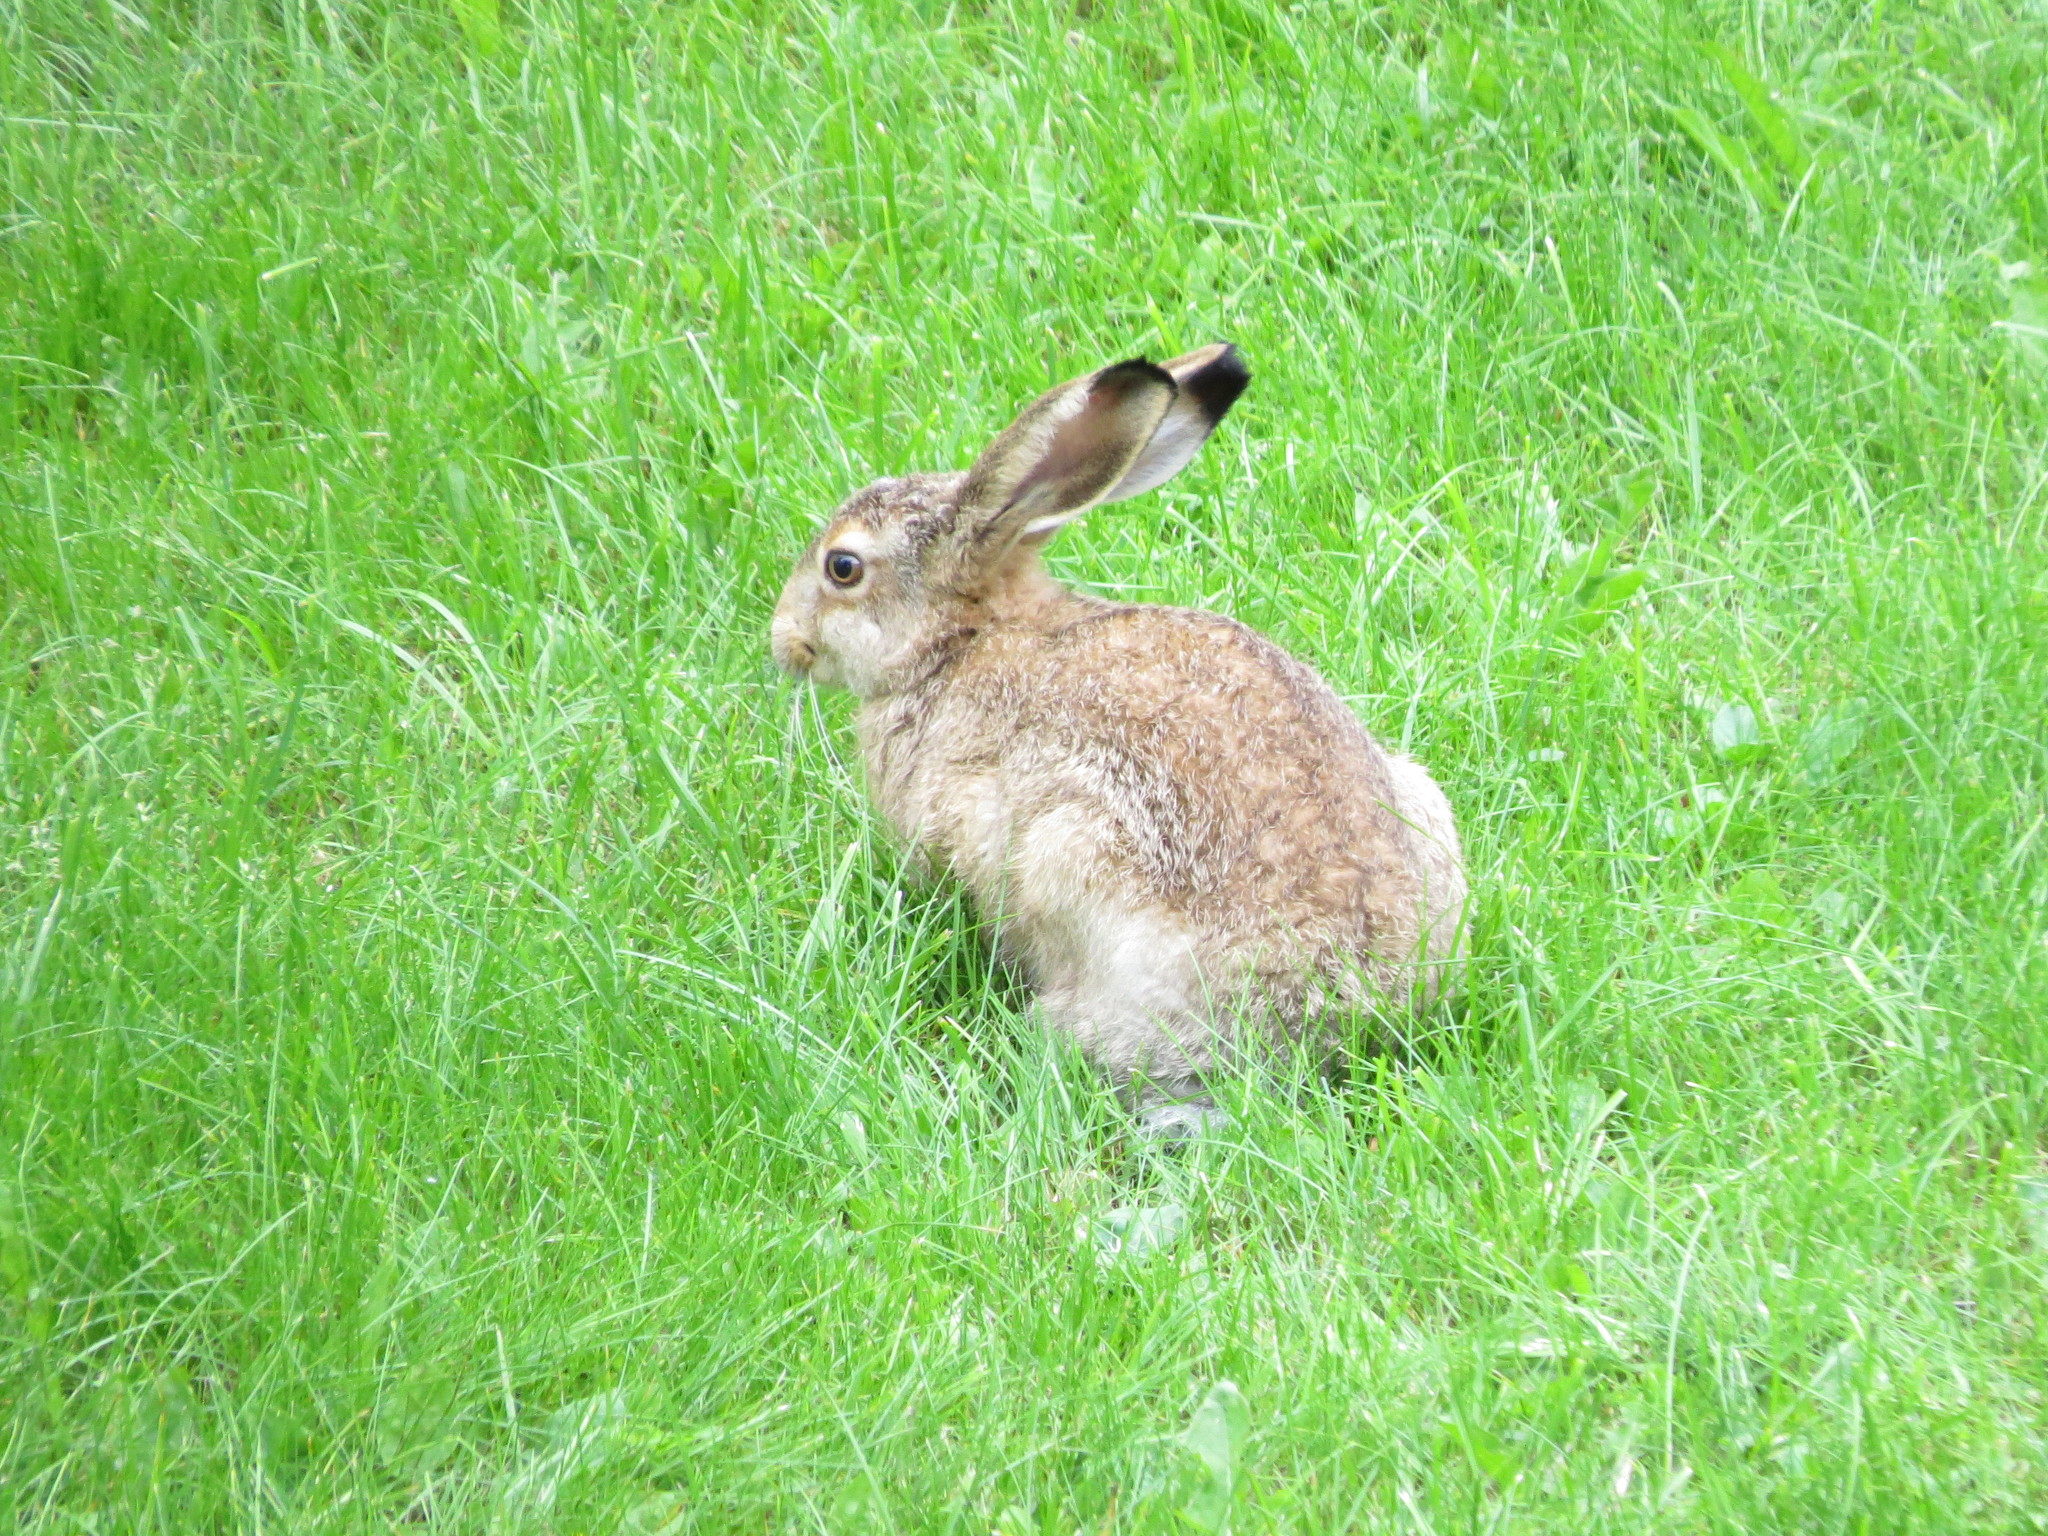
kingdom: Animalia
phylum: Chordata
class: Mammalia
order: Lagomorpha
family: Leporidae
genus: Lepus
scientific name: Lepus europaeus
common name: European hare
